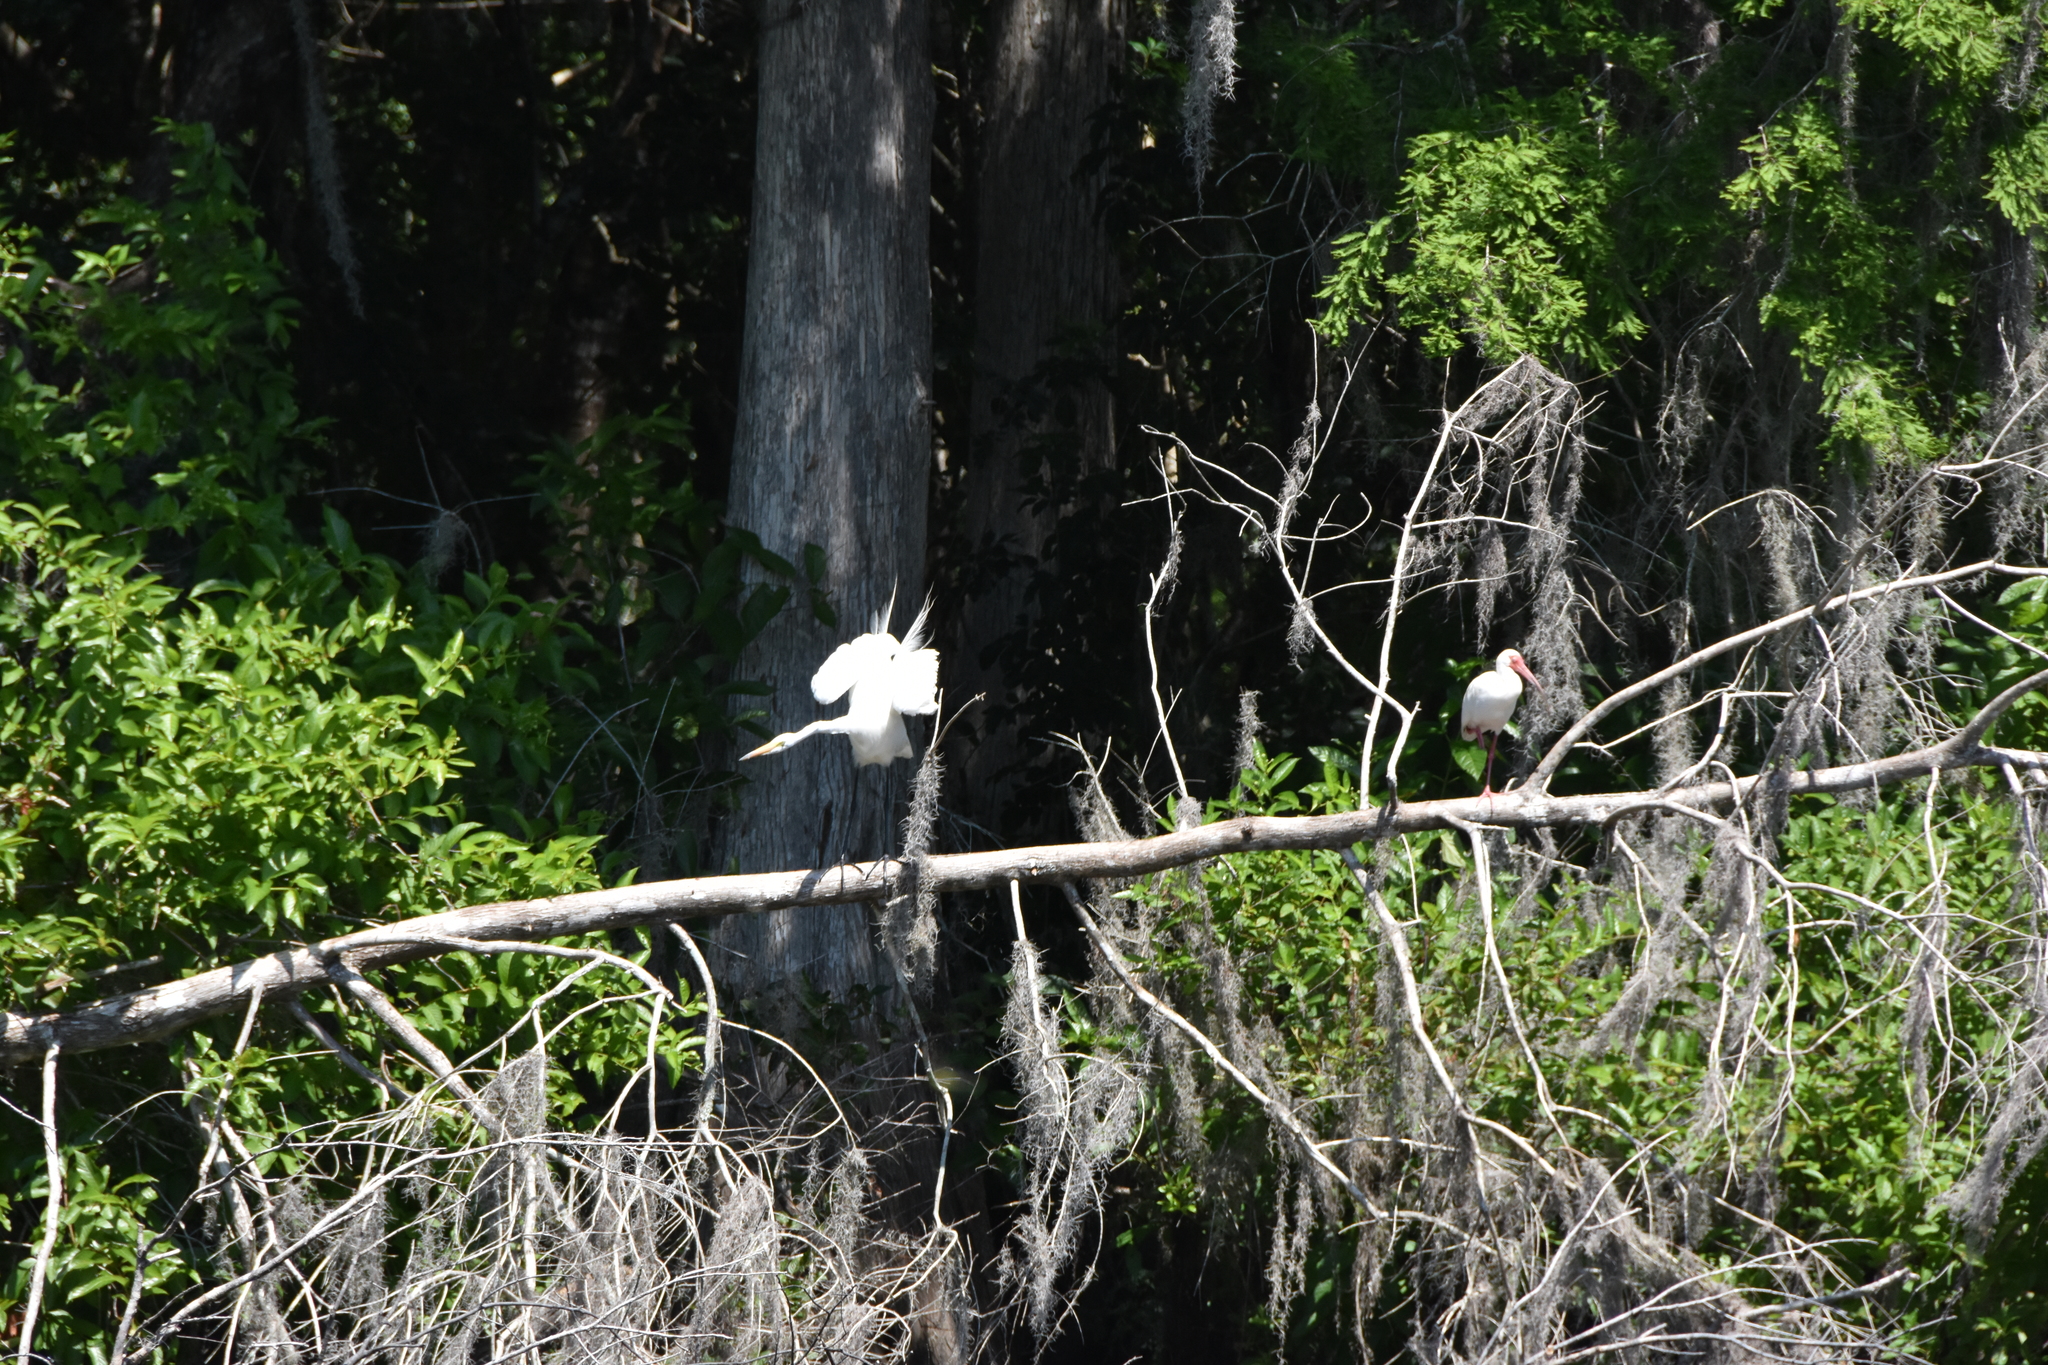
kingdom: Animalia
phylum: Chordata
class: Aves
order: Pelecaniformes
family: Ardeidae
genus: Ardea
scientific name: Ardea alba
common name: Great egret
